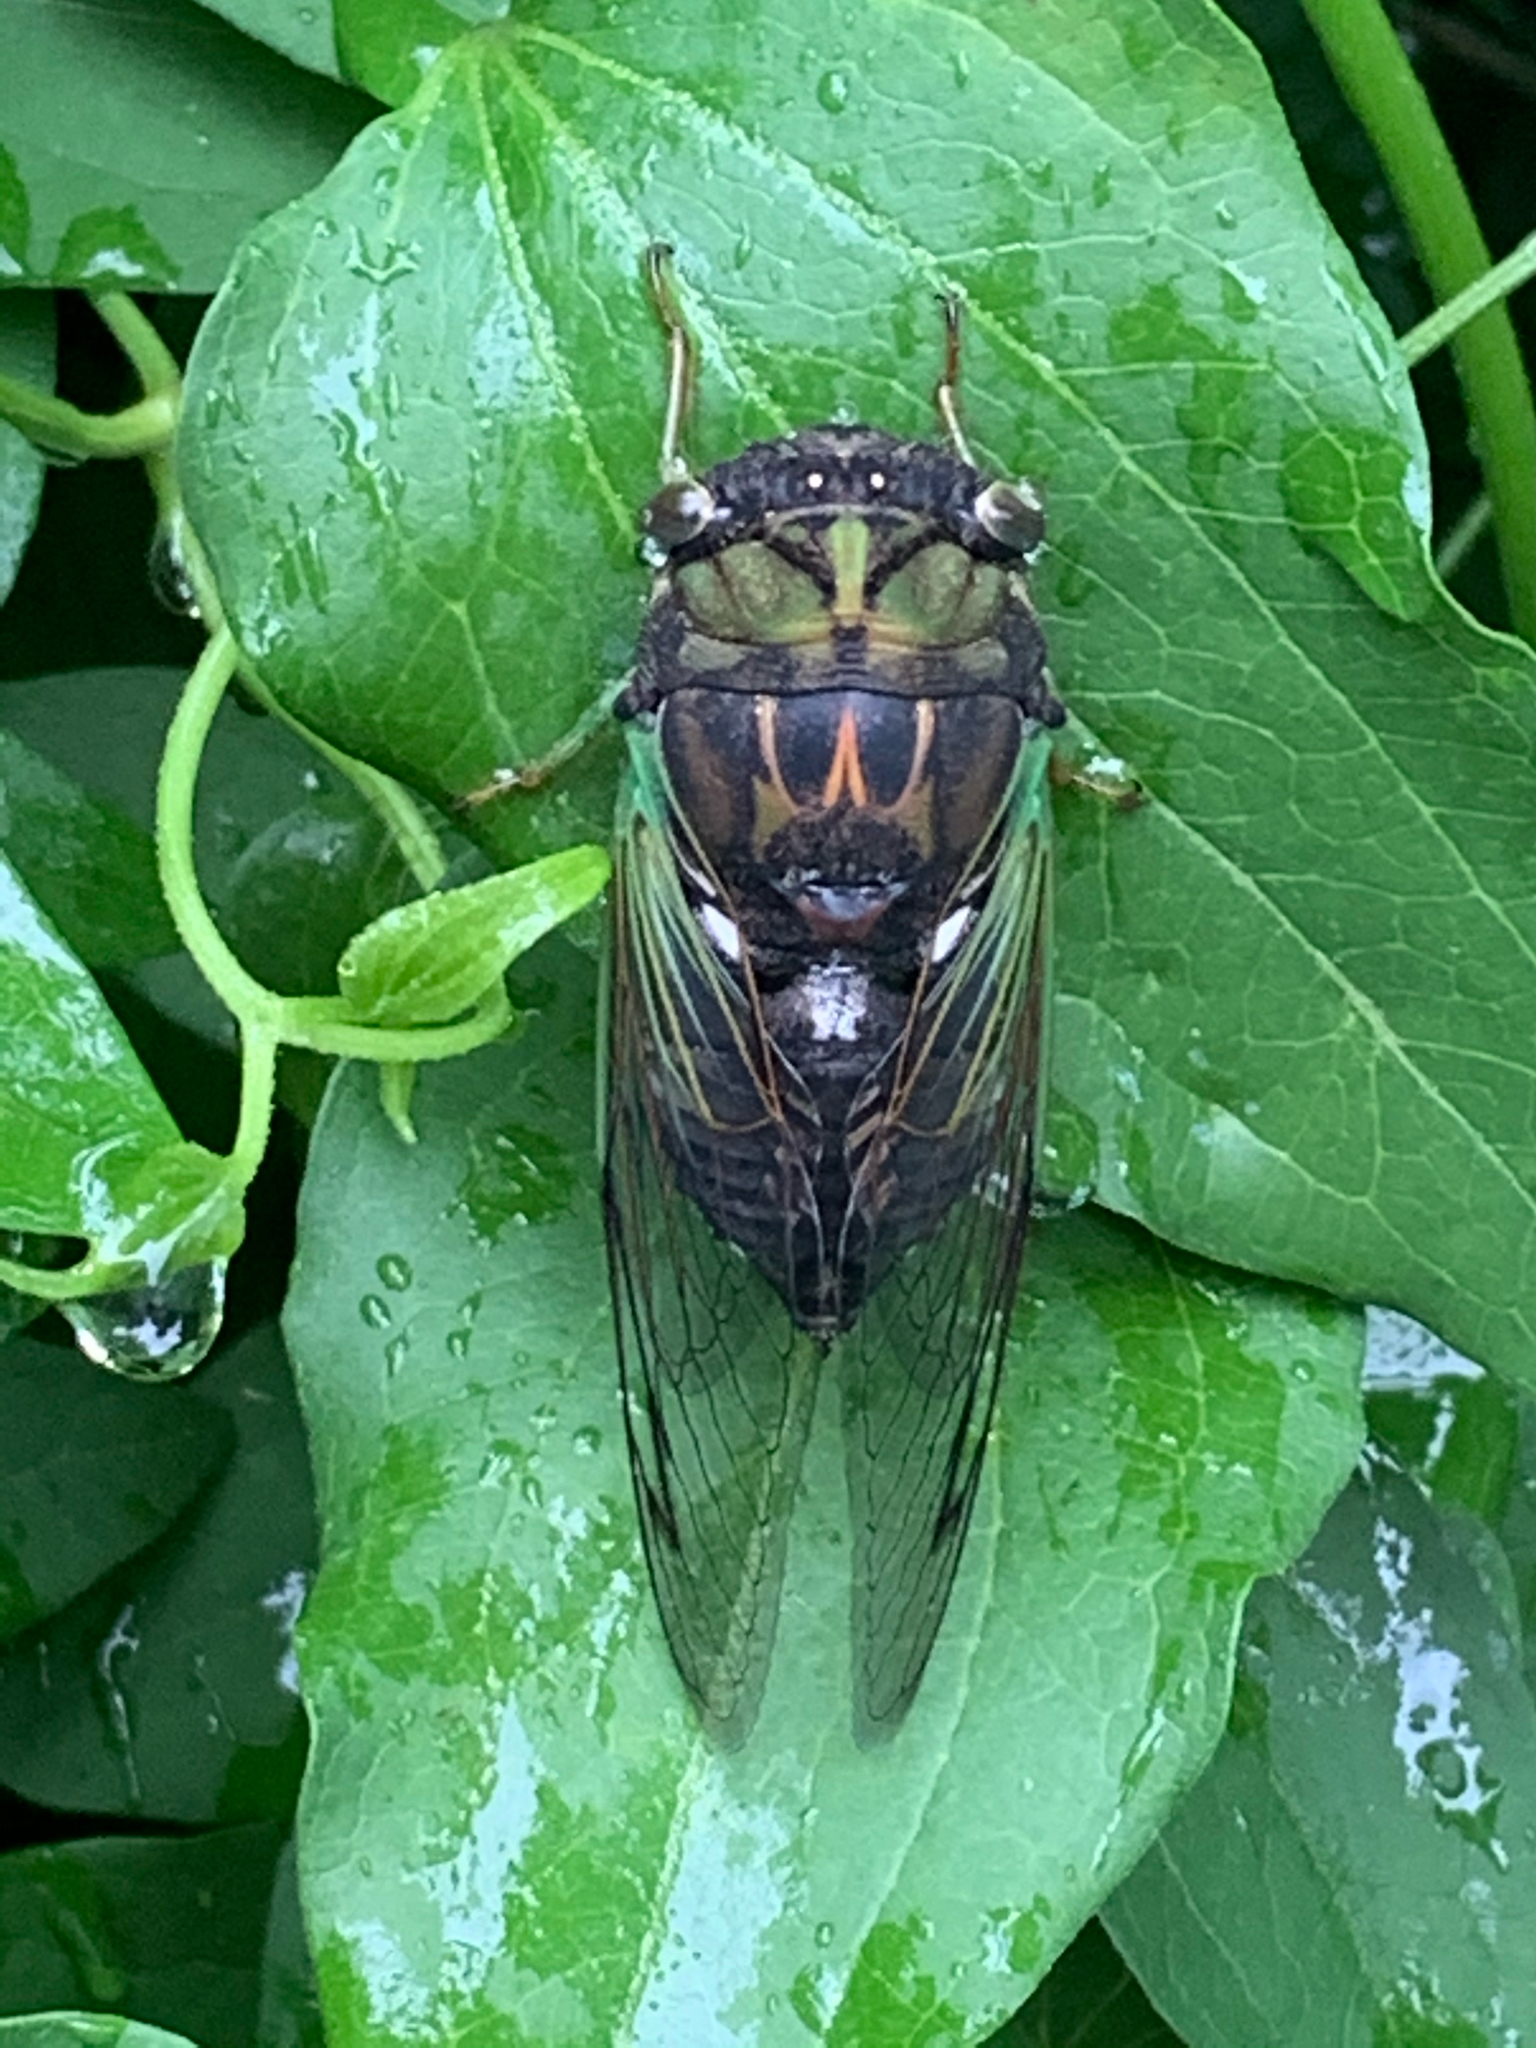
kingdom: Animalia
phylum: Arthropoda
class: Insecta
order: Hemiptera
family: Cicadidae
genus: Neotibicen
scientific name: Neotibicen tibicen
